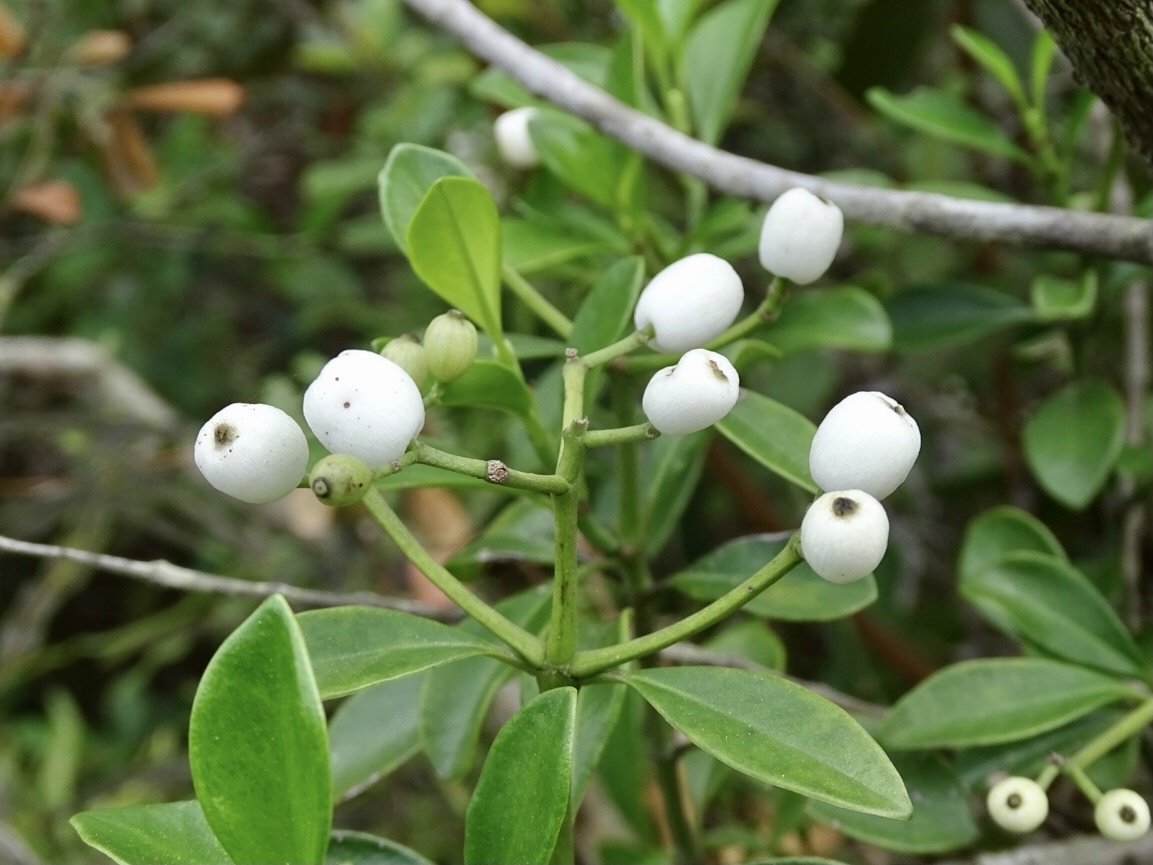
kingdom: Plantae
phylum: Tracheophyta
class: Magnoliopsida
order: Gentianales
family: Rubiaceae
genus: Psychotria
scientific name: Psychotria serpens
